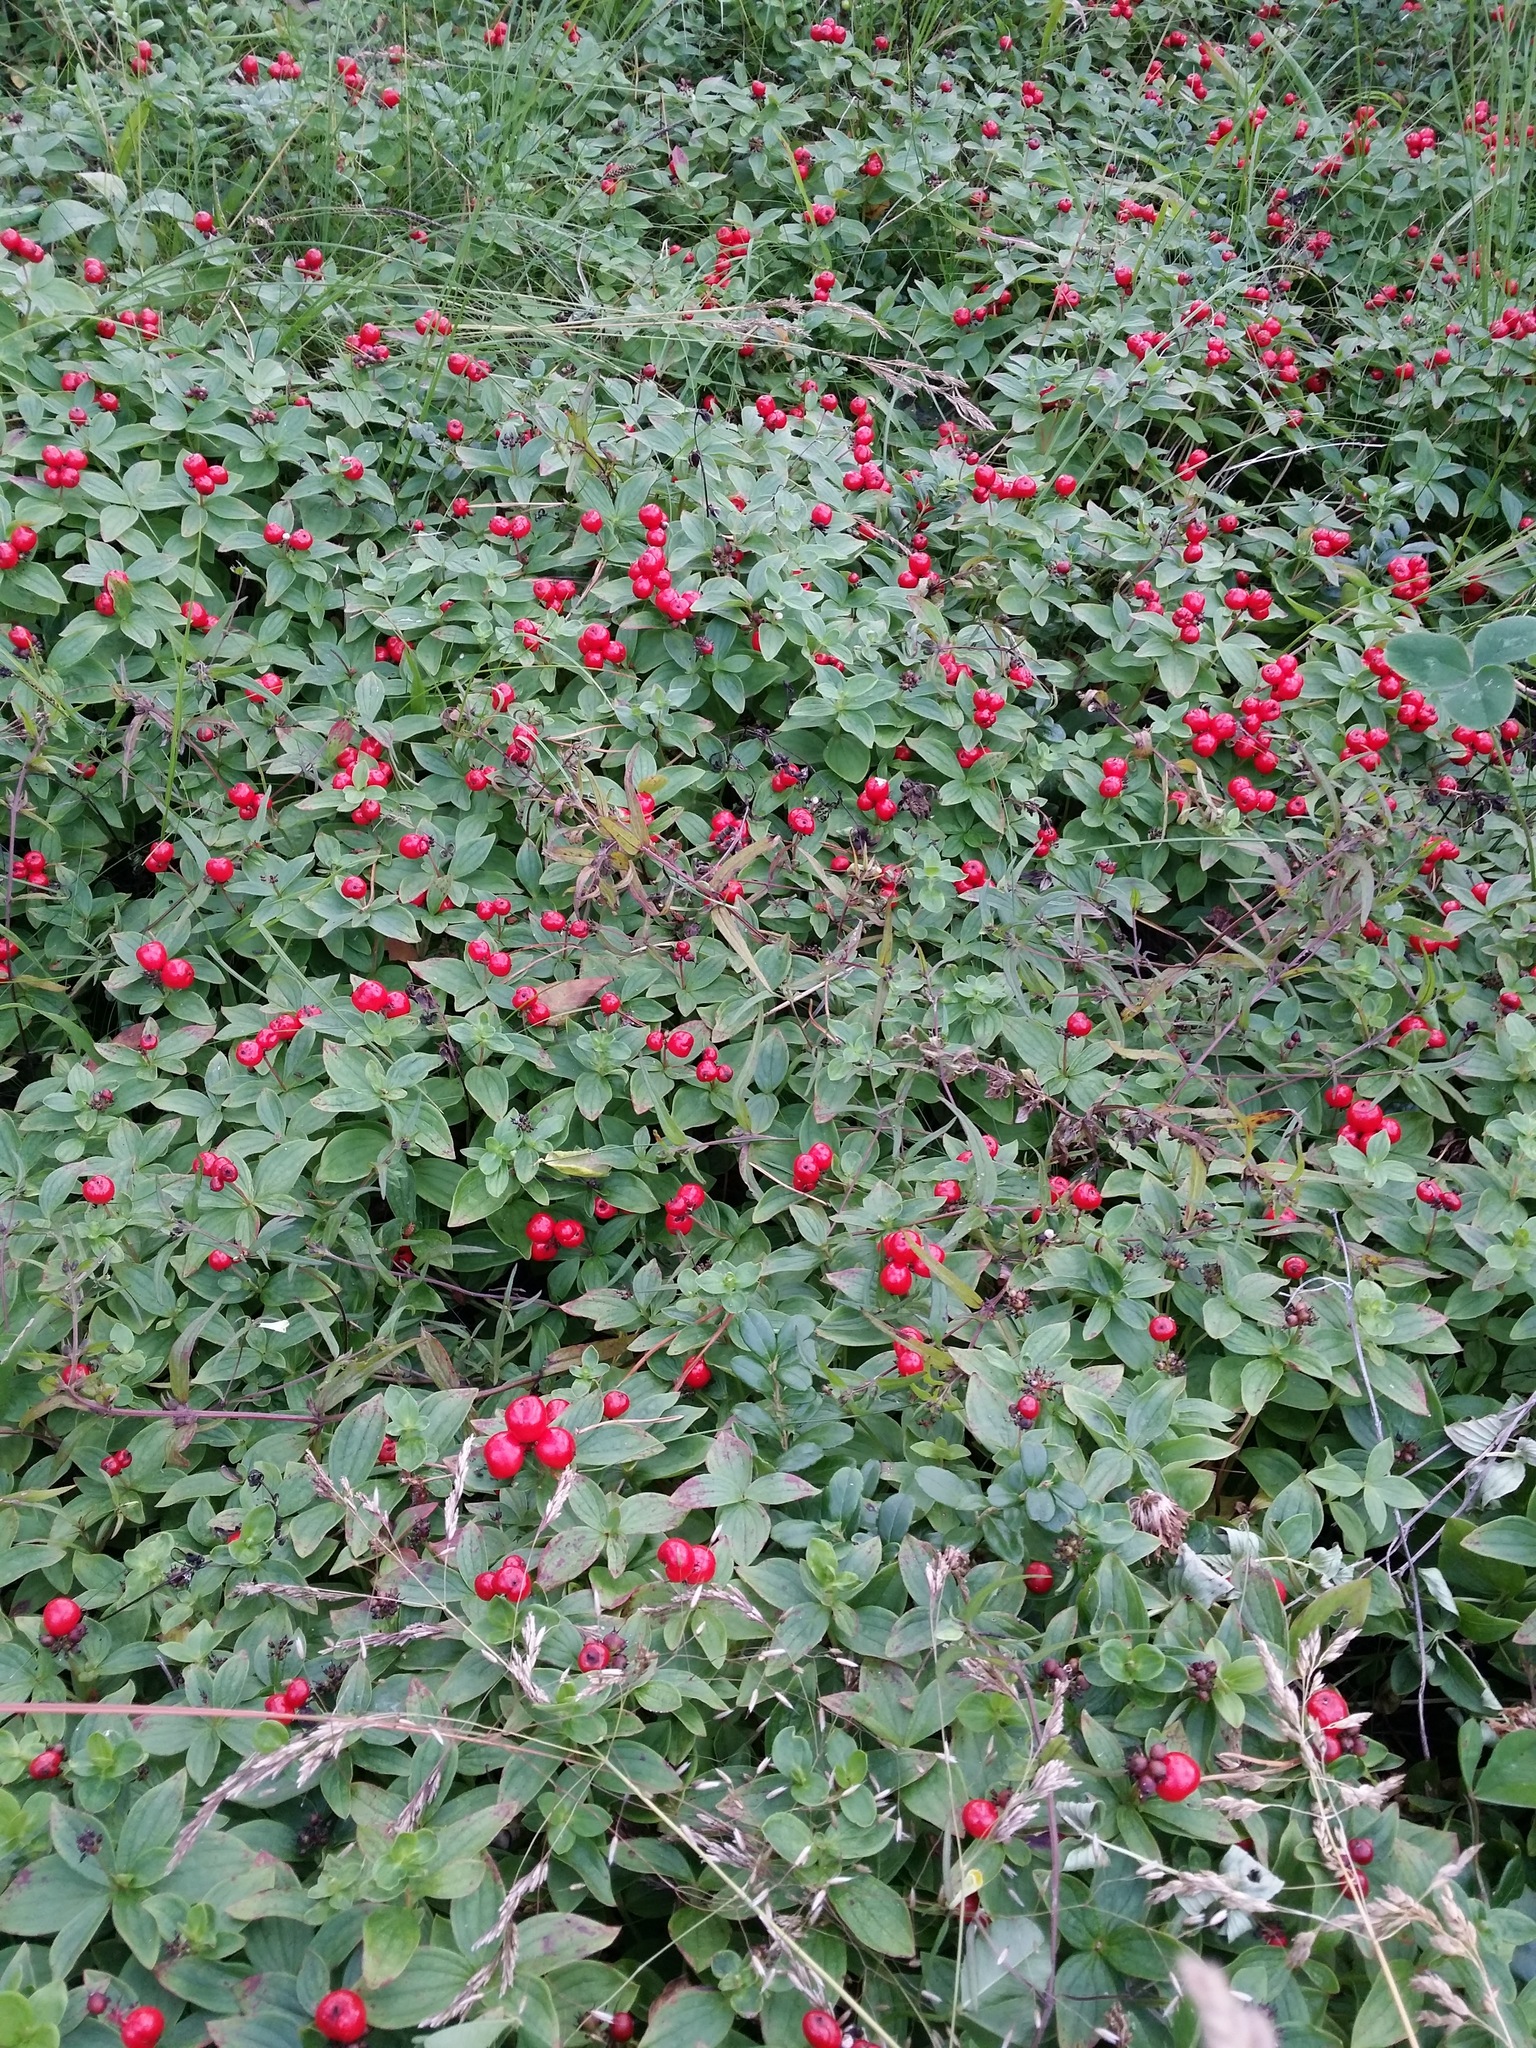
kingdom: Plantae
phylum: Tracheophyta
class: Magnoliopsida
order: Cornales
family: Cornaceae
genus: Cornus
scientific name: Cornus suecica
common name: Dwarf cornel
